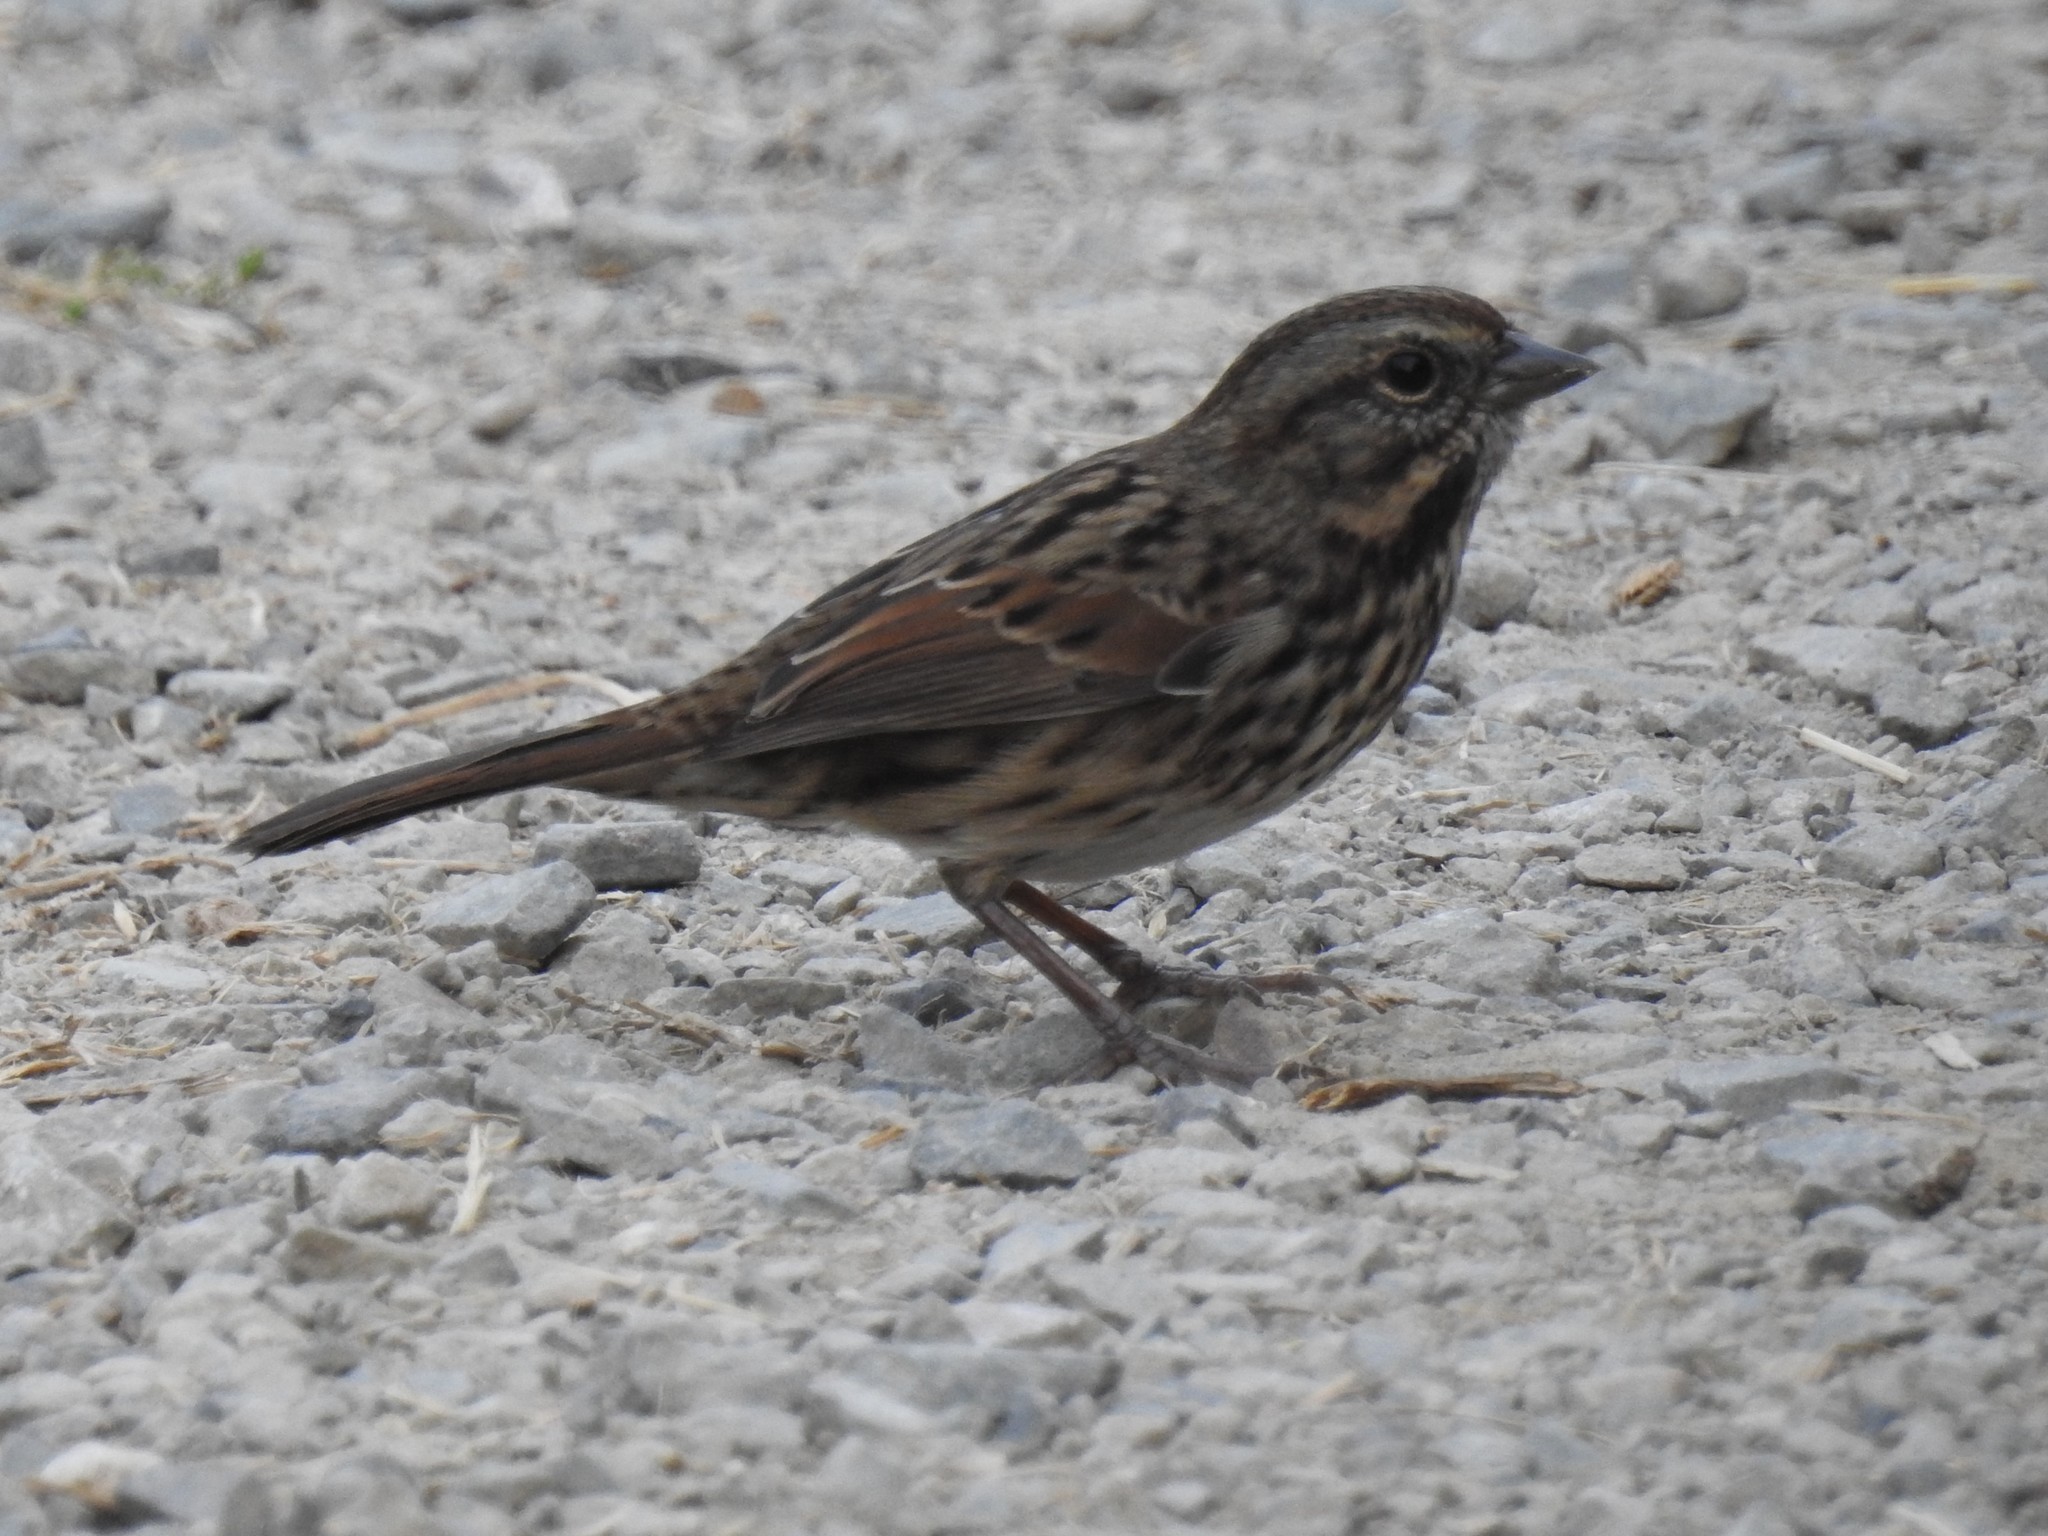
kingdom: Animalia
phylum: Chordata
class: Aves
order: Passeriformes
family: Passerellidae
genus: Melospiza
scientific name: Melospiza melodia
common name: Song sparrow
